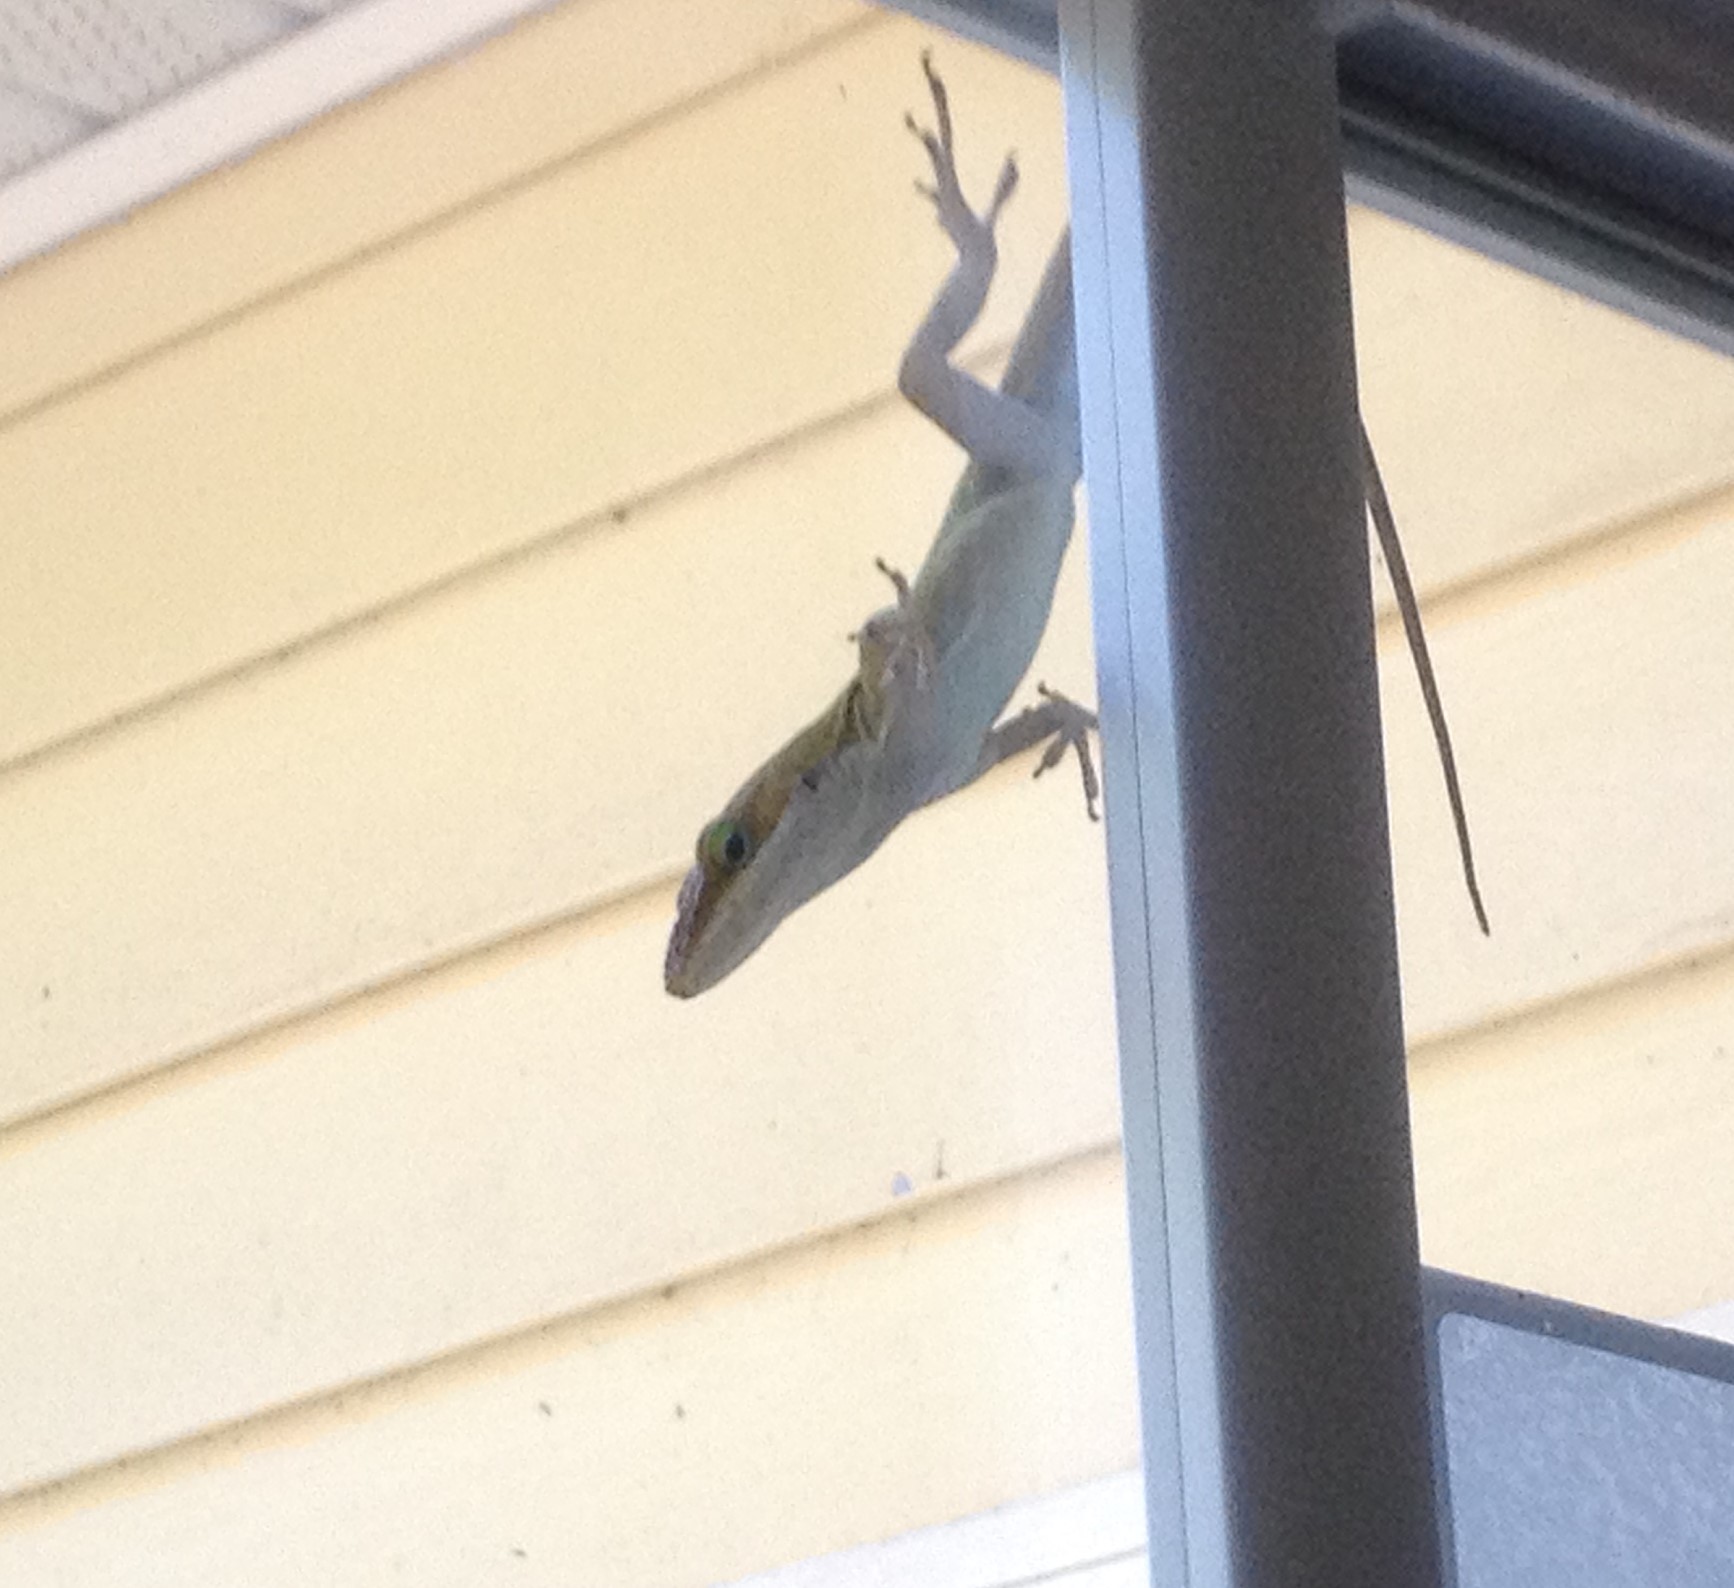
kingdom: Animalia
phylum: Chordata
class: Squamata
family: Dactyloidae
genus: Anolis
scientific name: Anolis carolinensis
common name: Green anole
